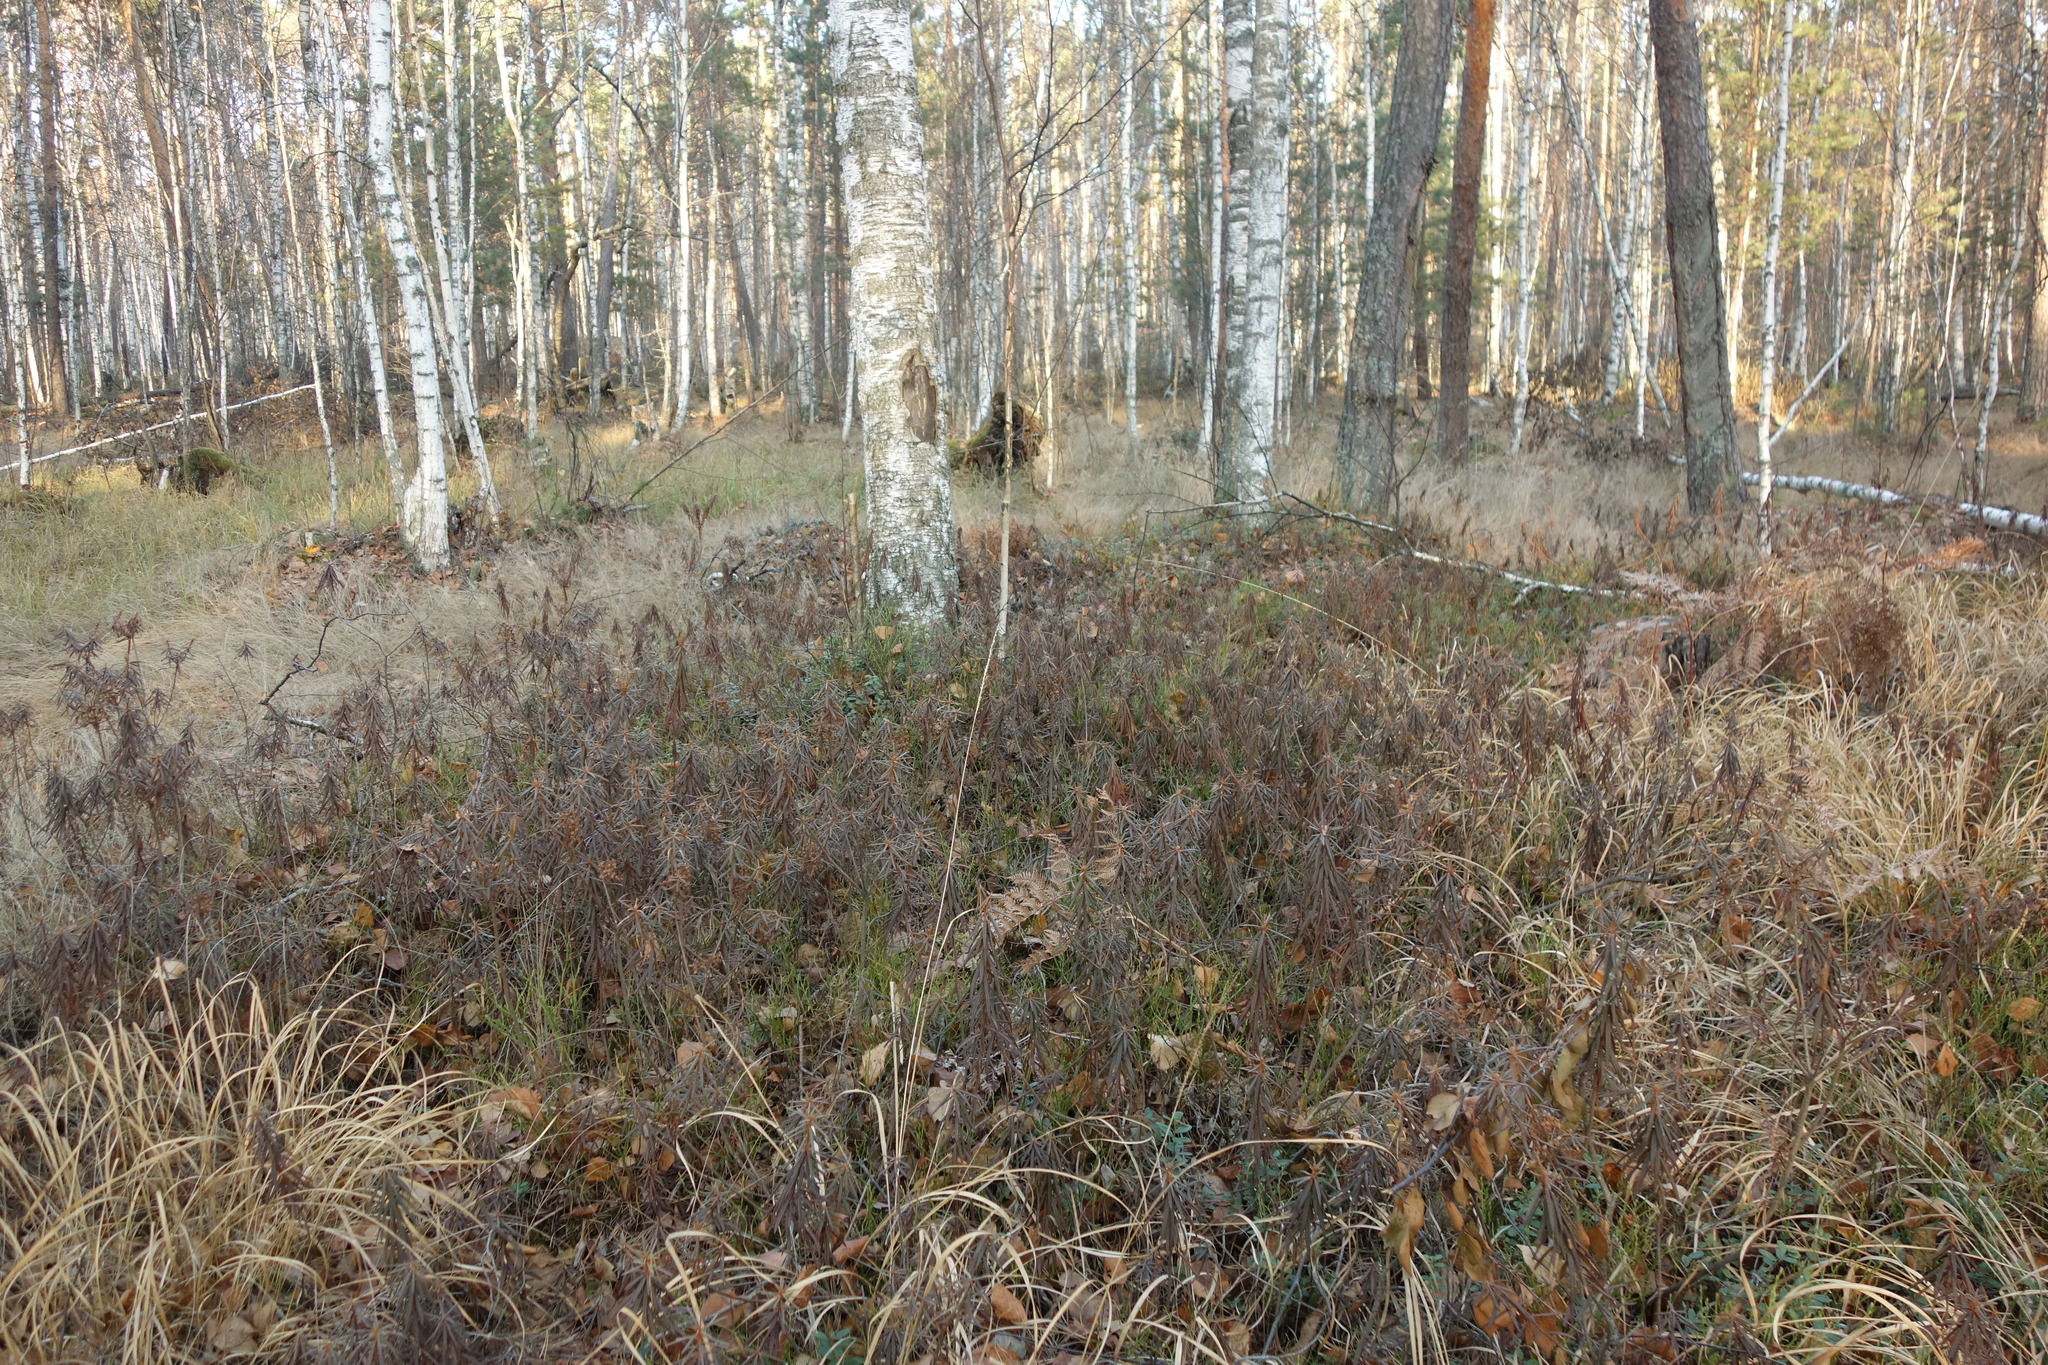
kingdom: Plantae
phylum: Tracheophyta
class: Magnoliopsida
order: Ericales
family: Ericaceae
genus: Rhododendron
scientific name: Rhododendron tomentosum
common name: Marsh labrador tea
